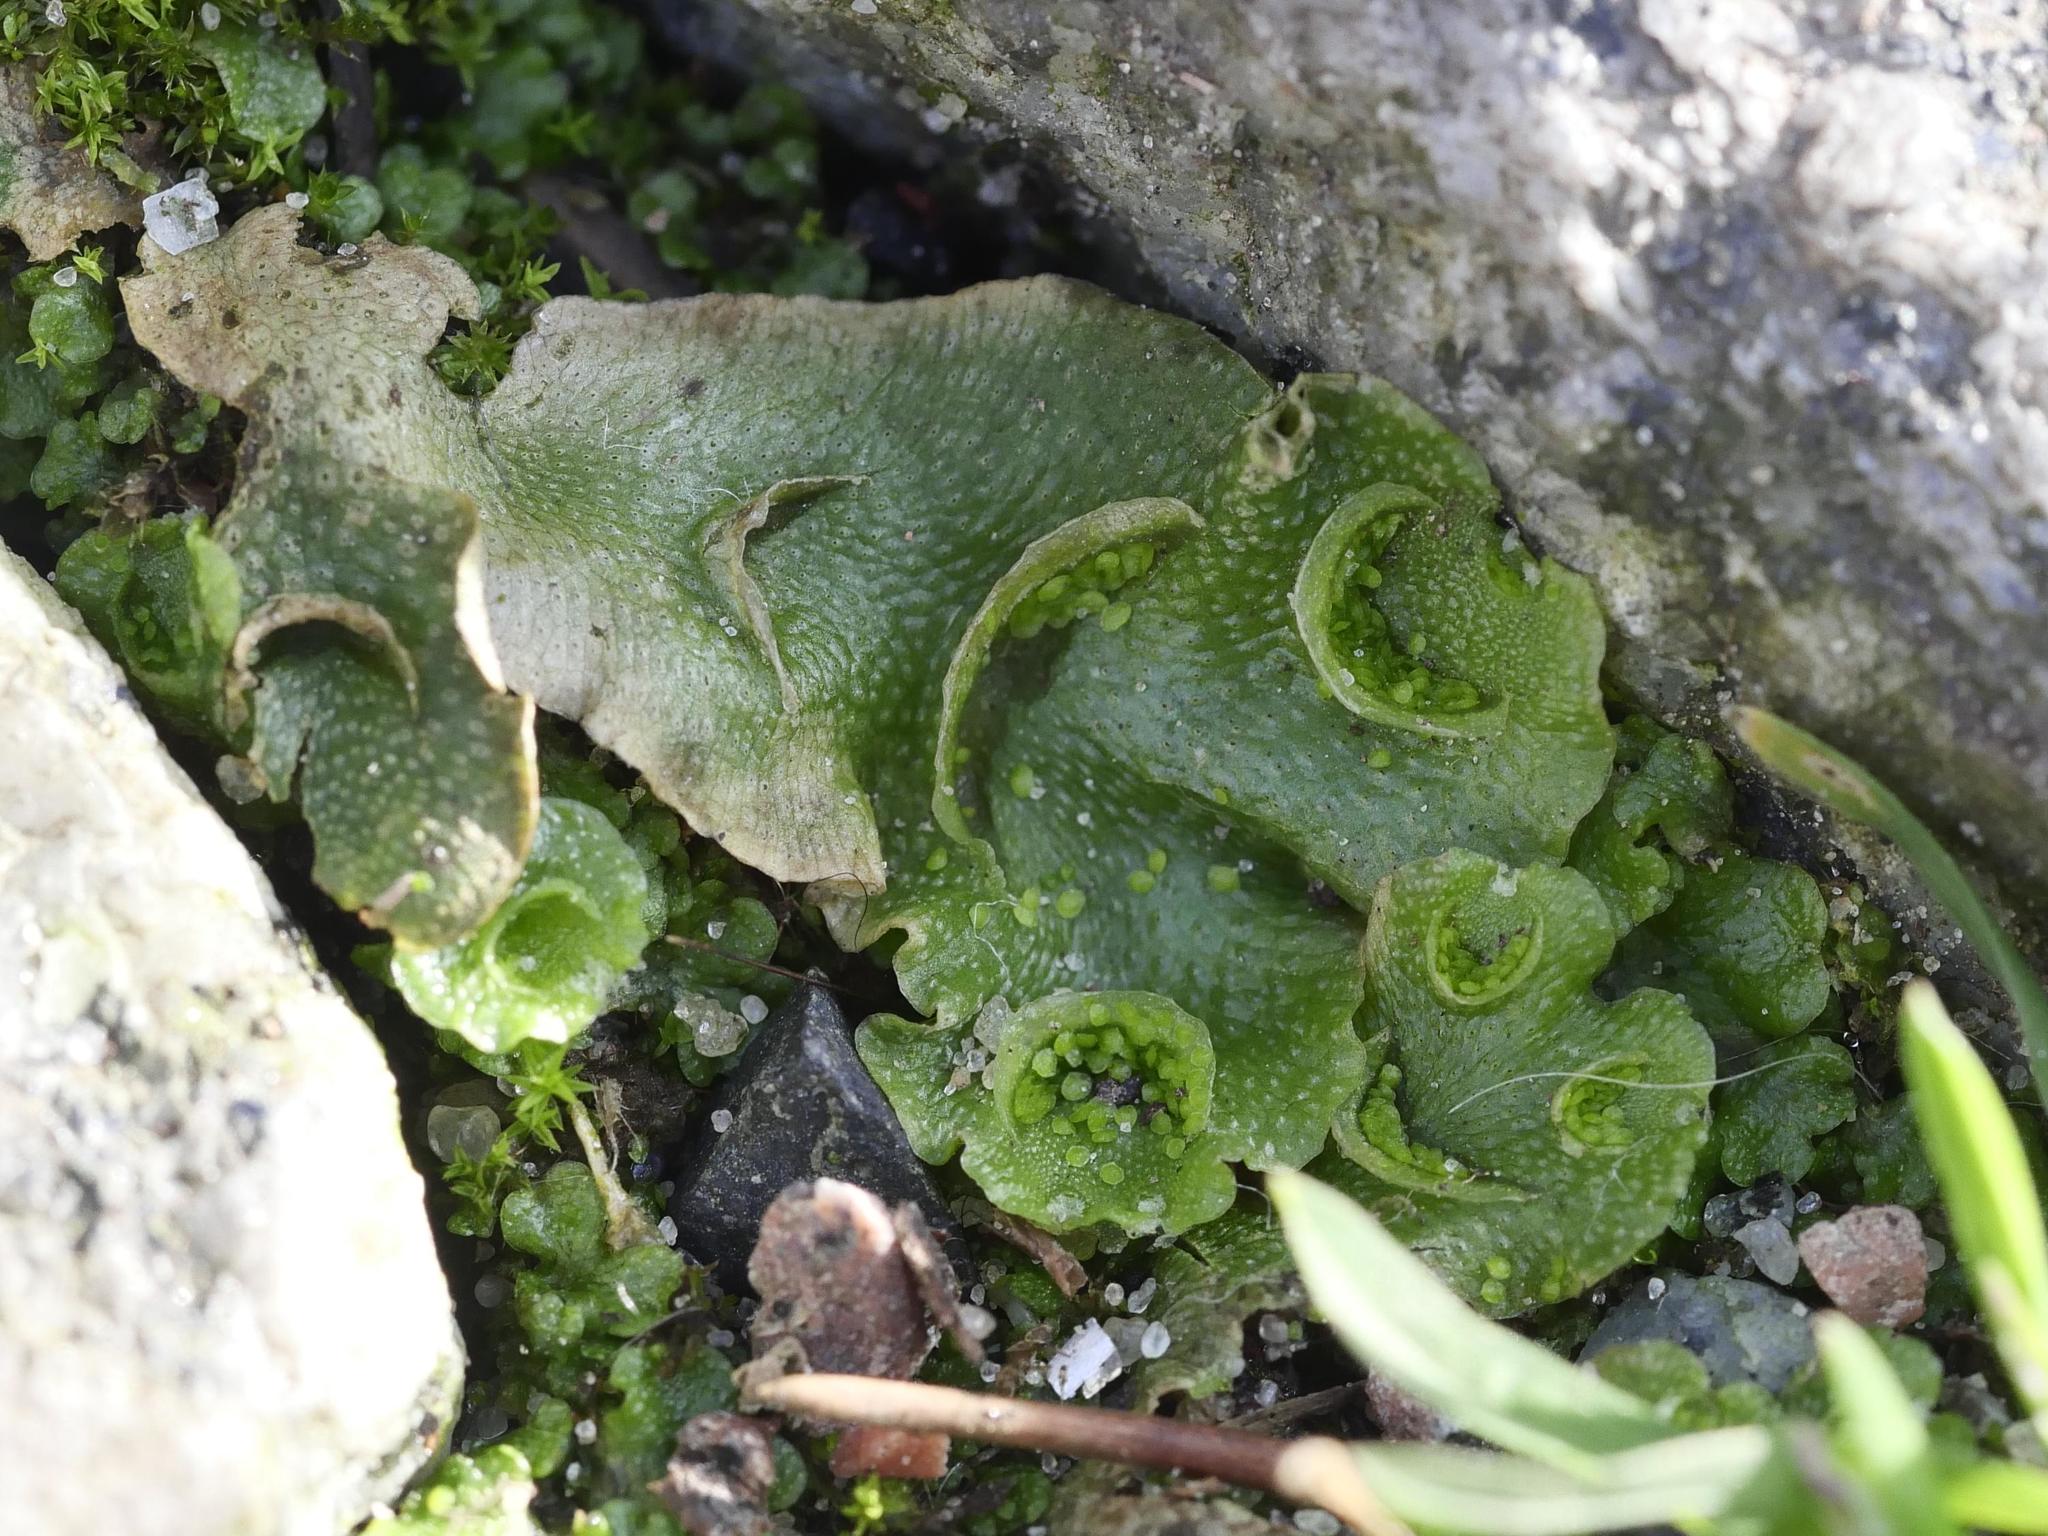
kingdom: Plantae
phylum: Marchantiophyta
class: Marchantiopsida
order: Lunulariales
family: Lunulariaceae
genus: Lunularia
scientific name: Lunularia cruciata
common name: Crescent-cup liverwort
